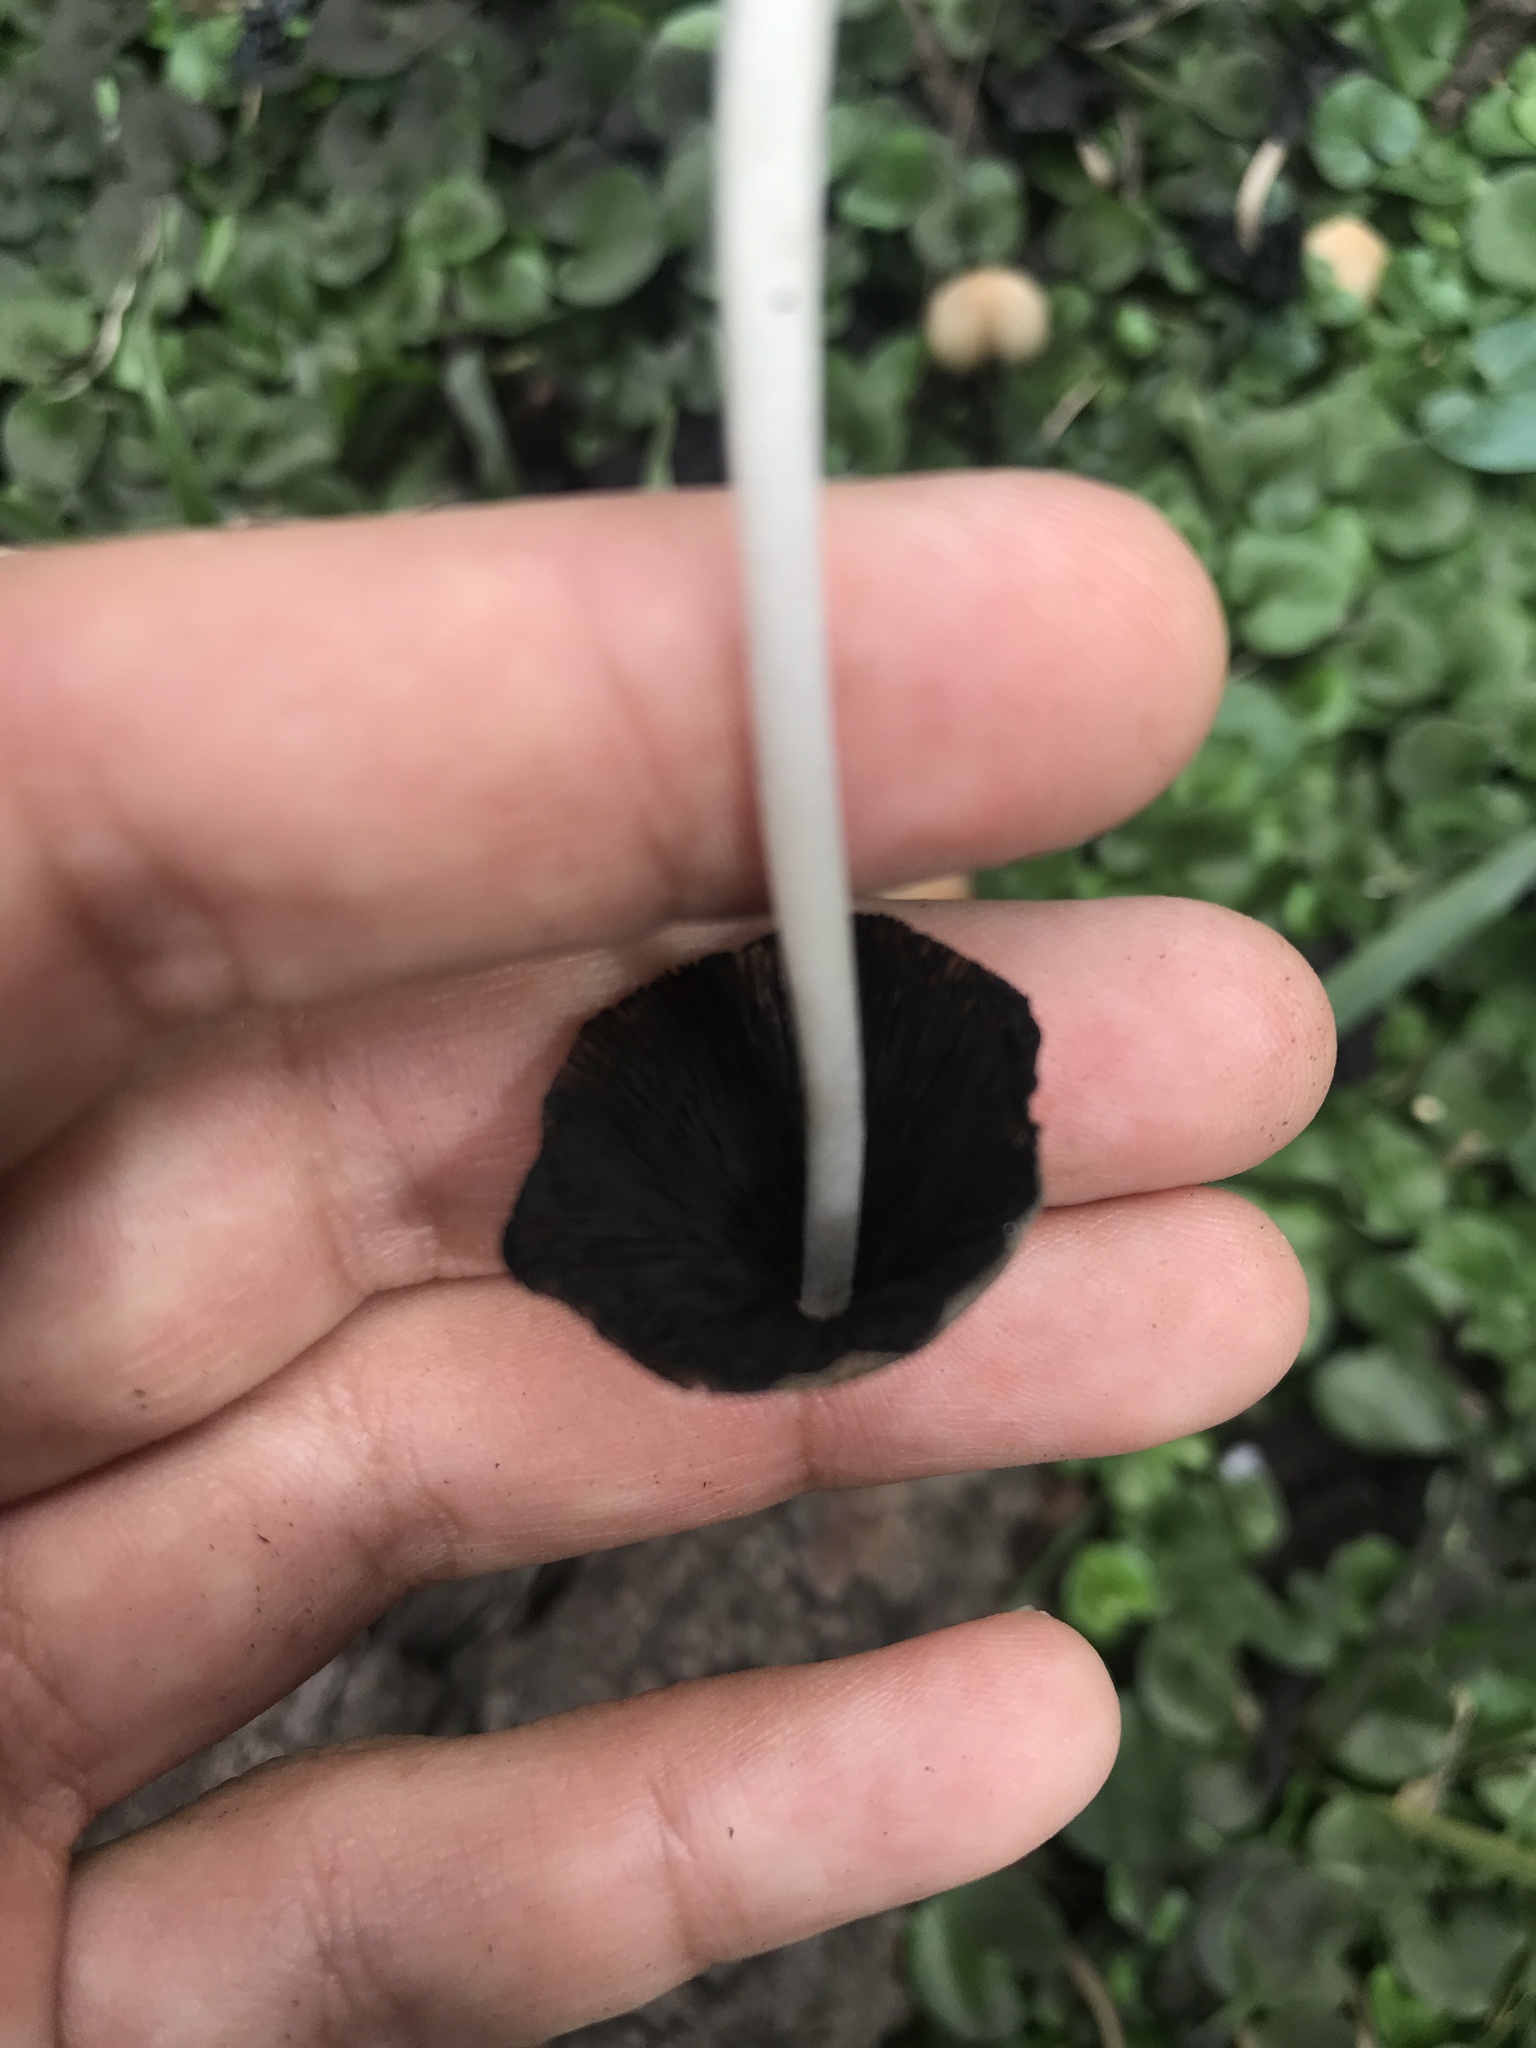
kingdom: Fungi
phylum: Basidiomycota
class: Agaricomycetes
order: Agaricales
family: Psathyrellaceae
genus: Coprinellus
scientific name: Coprinellus micaceus
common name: Glistening ink-cap
